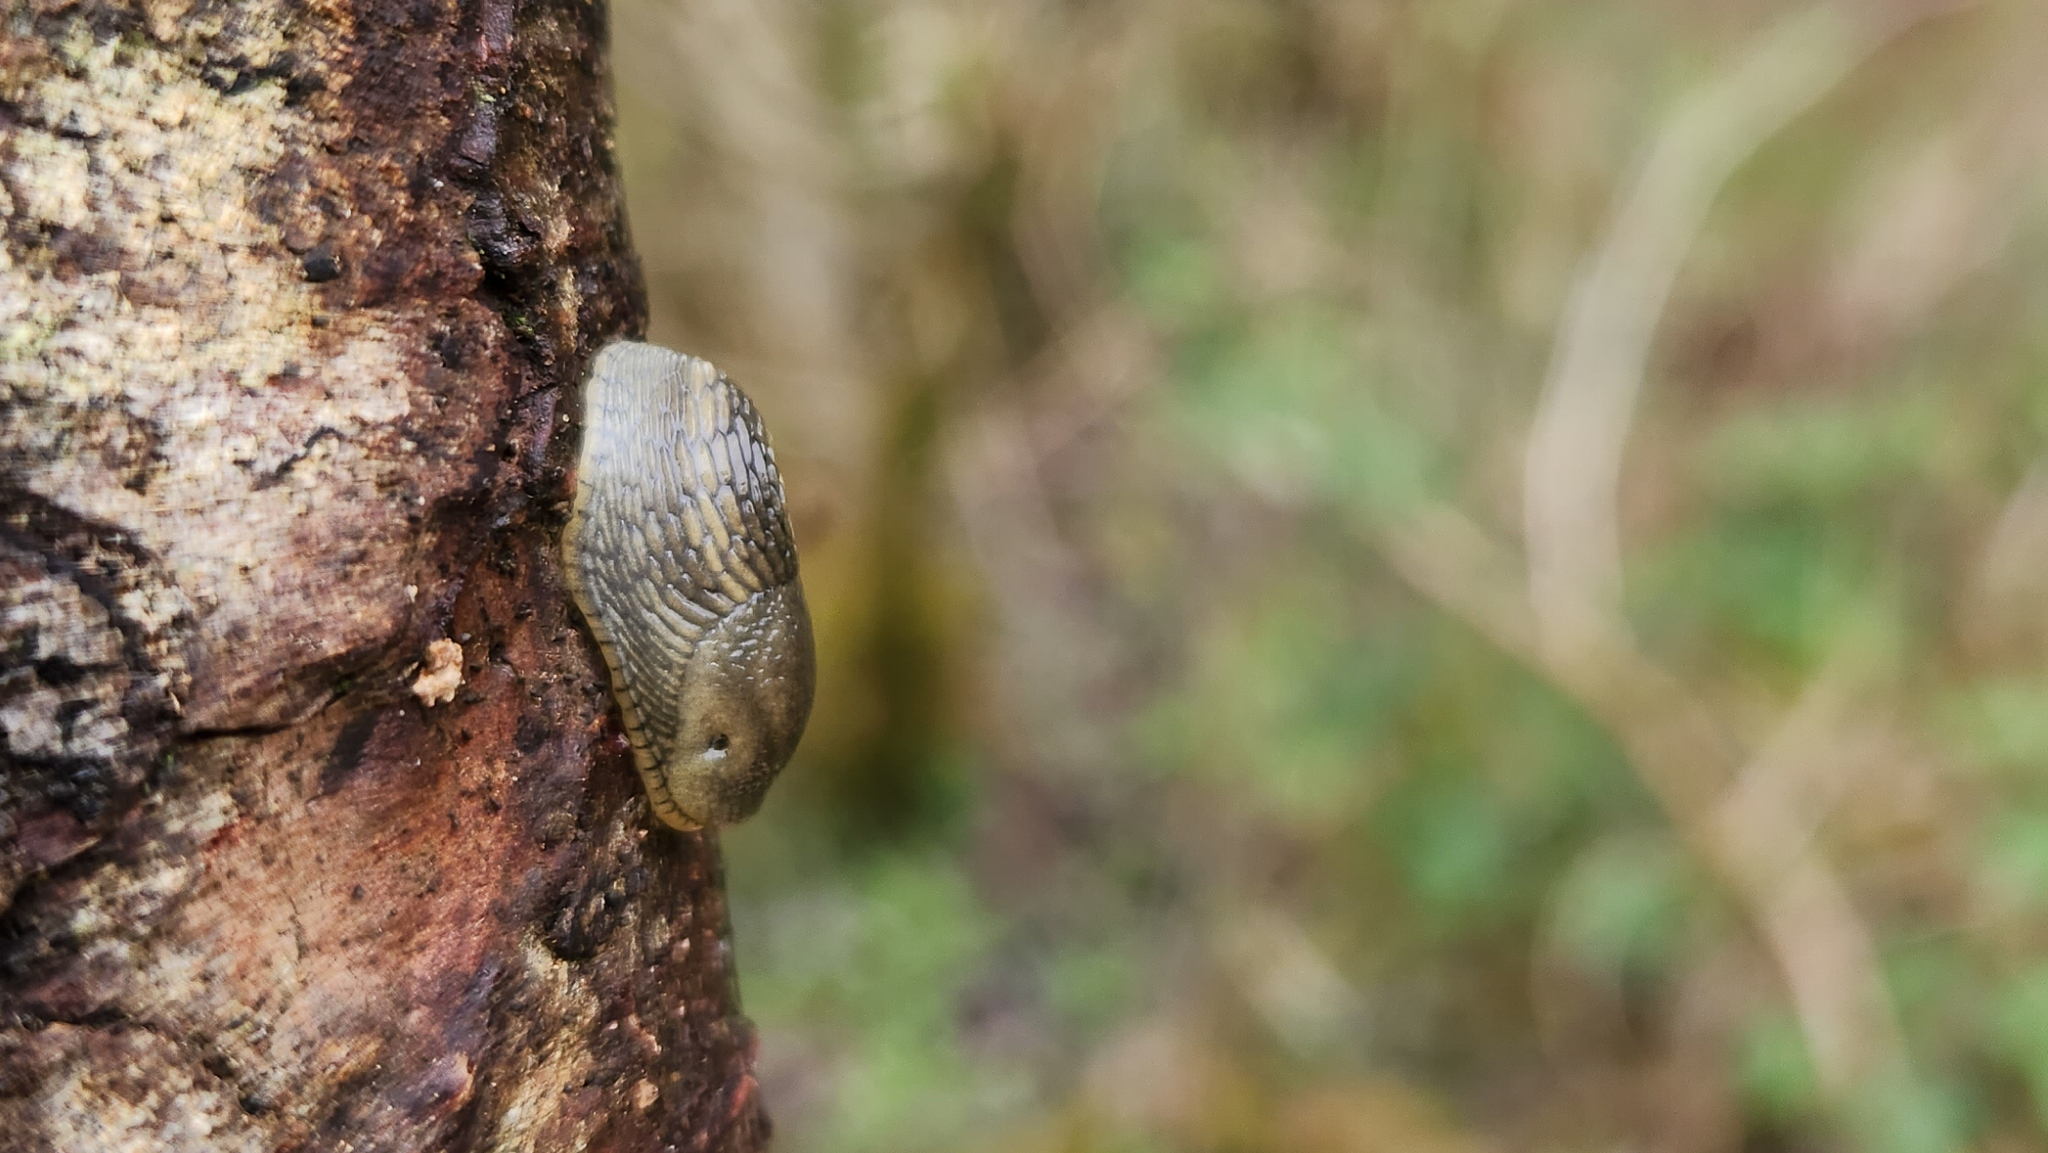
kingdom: Animalia
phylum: Mollusca
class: Gastropoda
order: Stylommatophora
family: Arionidae
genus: Arion
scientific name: Arion
